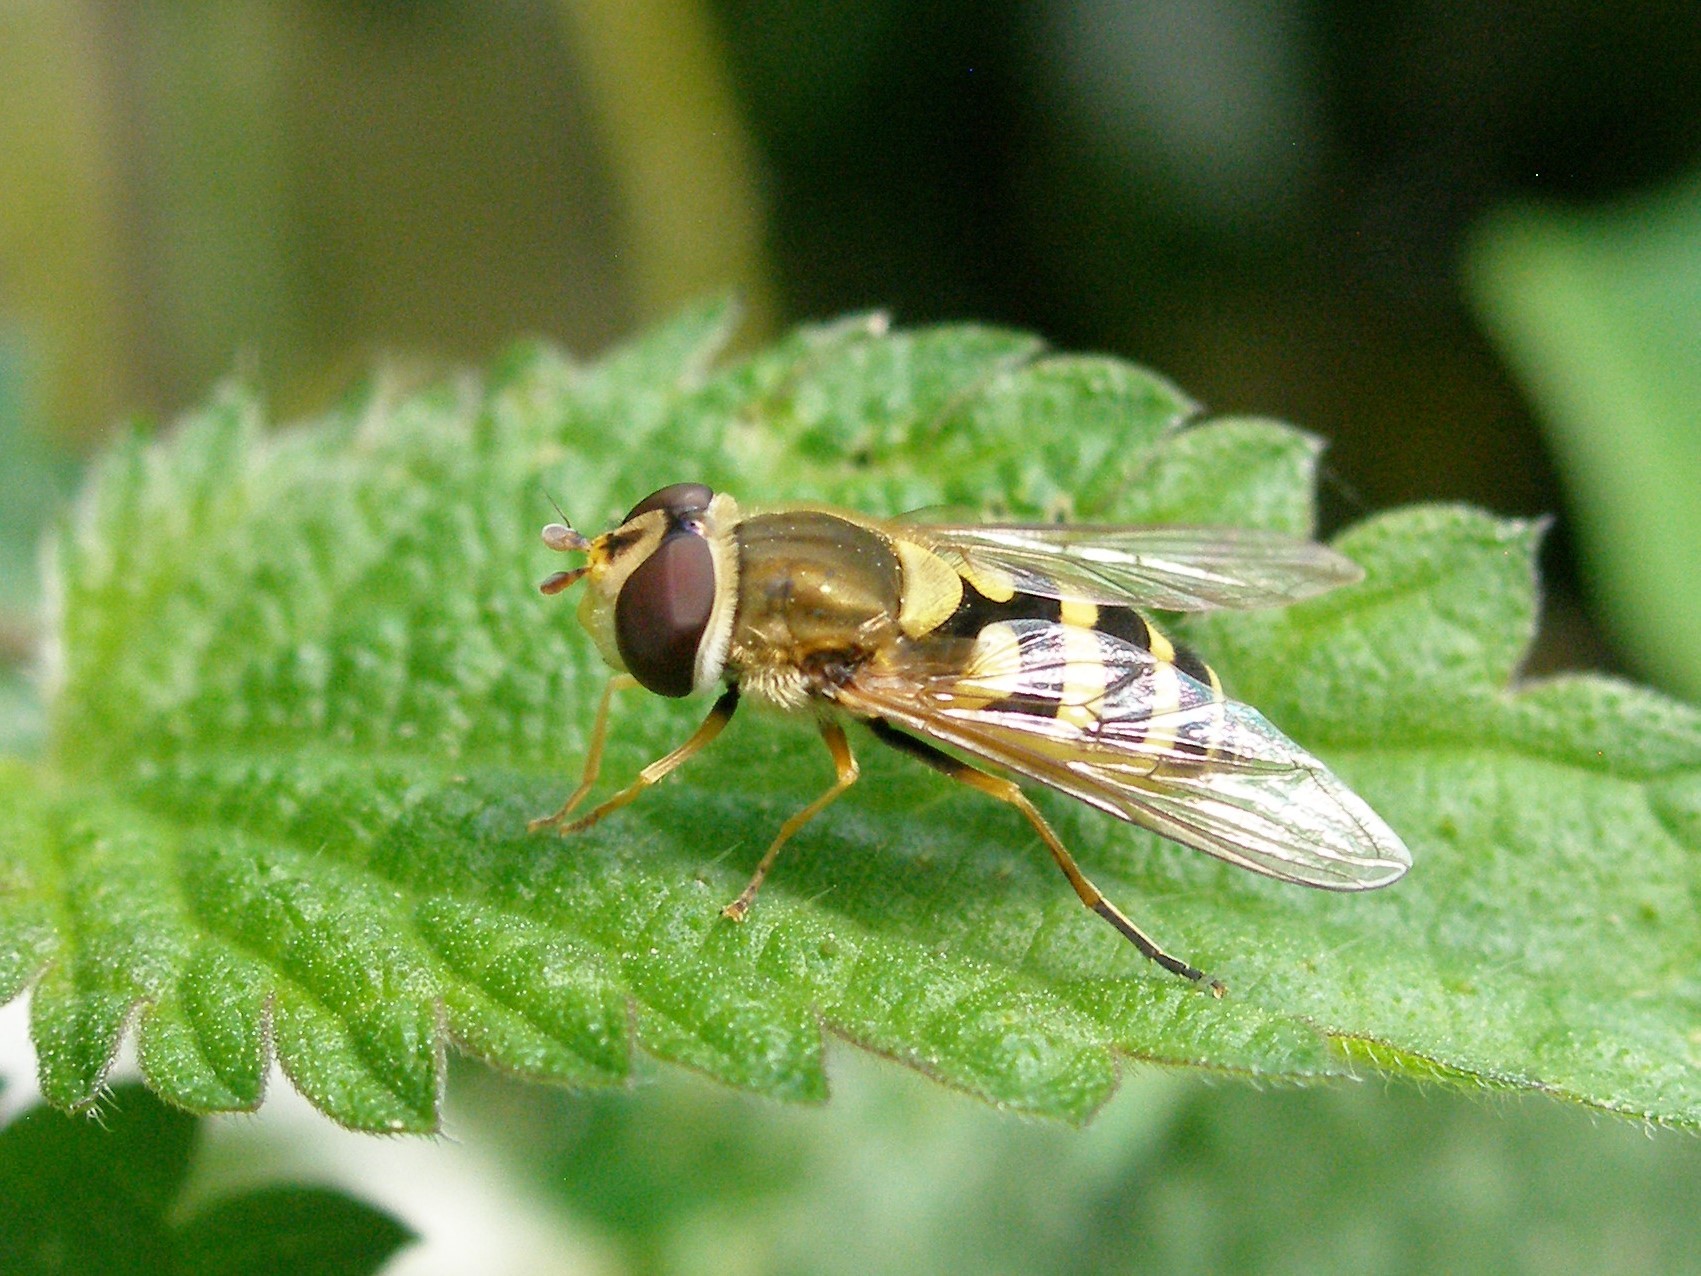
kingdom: Animalia
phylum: Arthropoda
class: Insecta
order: Diptera
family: Syrphidae
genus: Syrphus
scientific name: Syrphus
